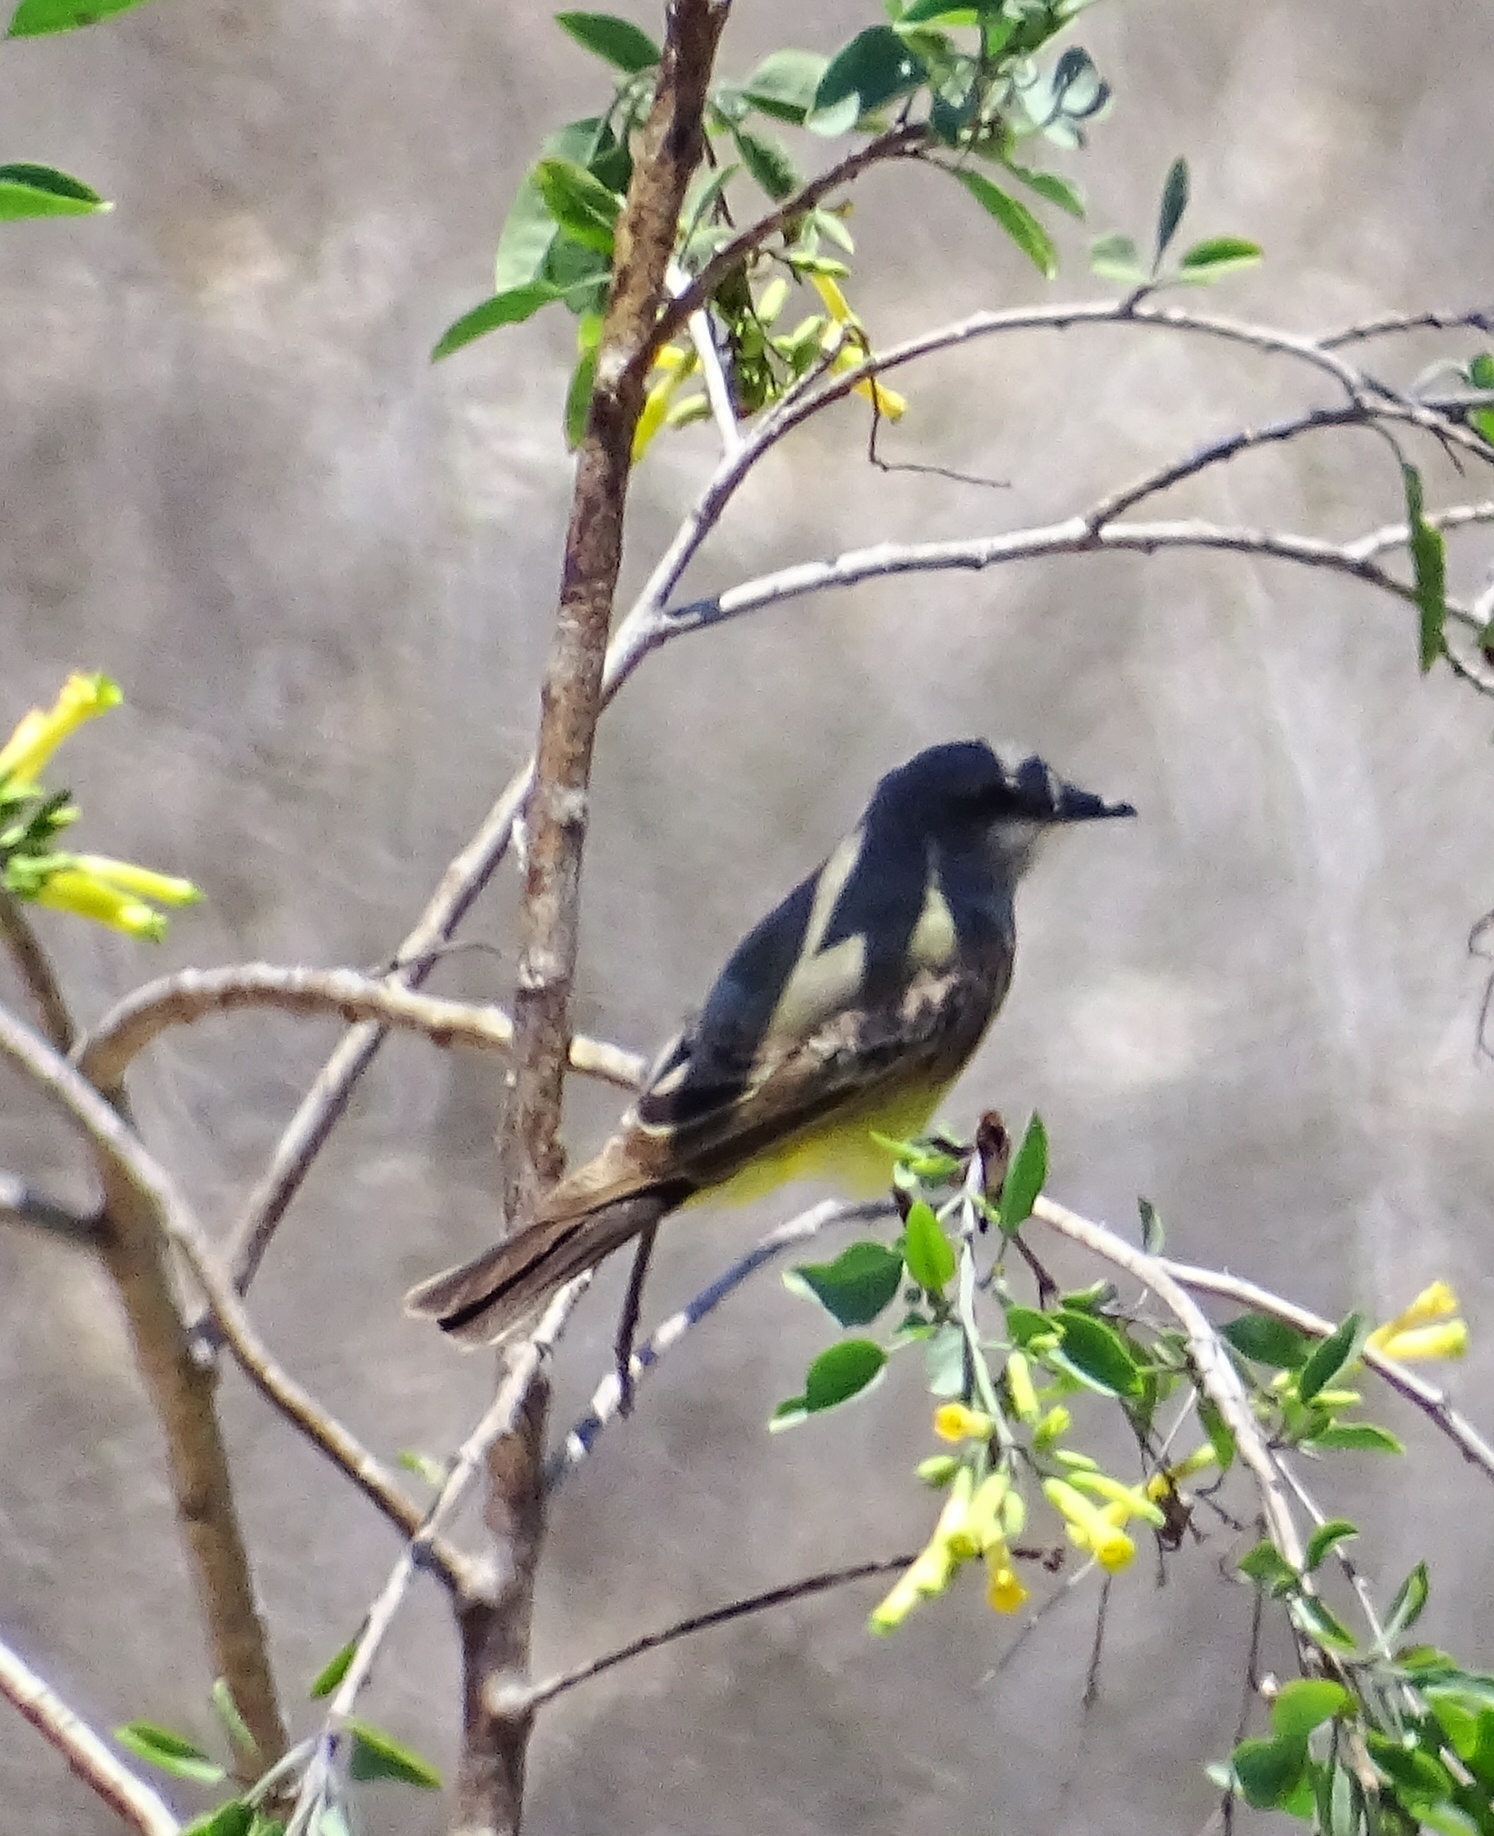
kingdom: Animalia
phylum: Chordata
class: Aves
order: Passeriformes
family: Tyrannidae
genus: Tyrannus
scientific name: Tyrannus verticalis
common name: Western kingbird
